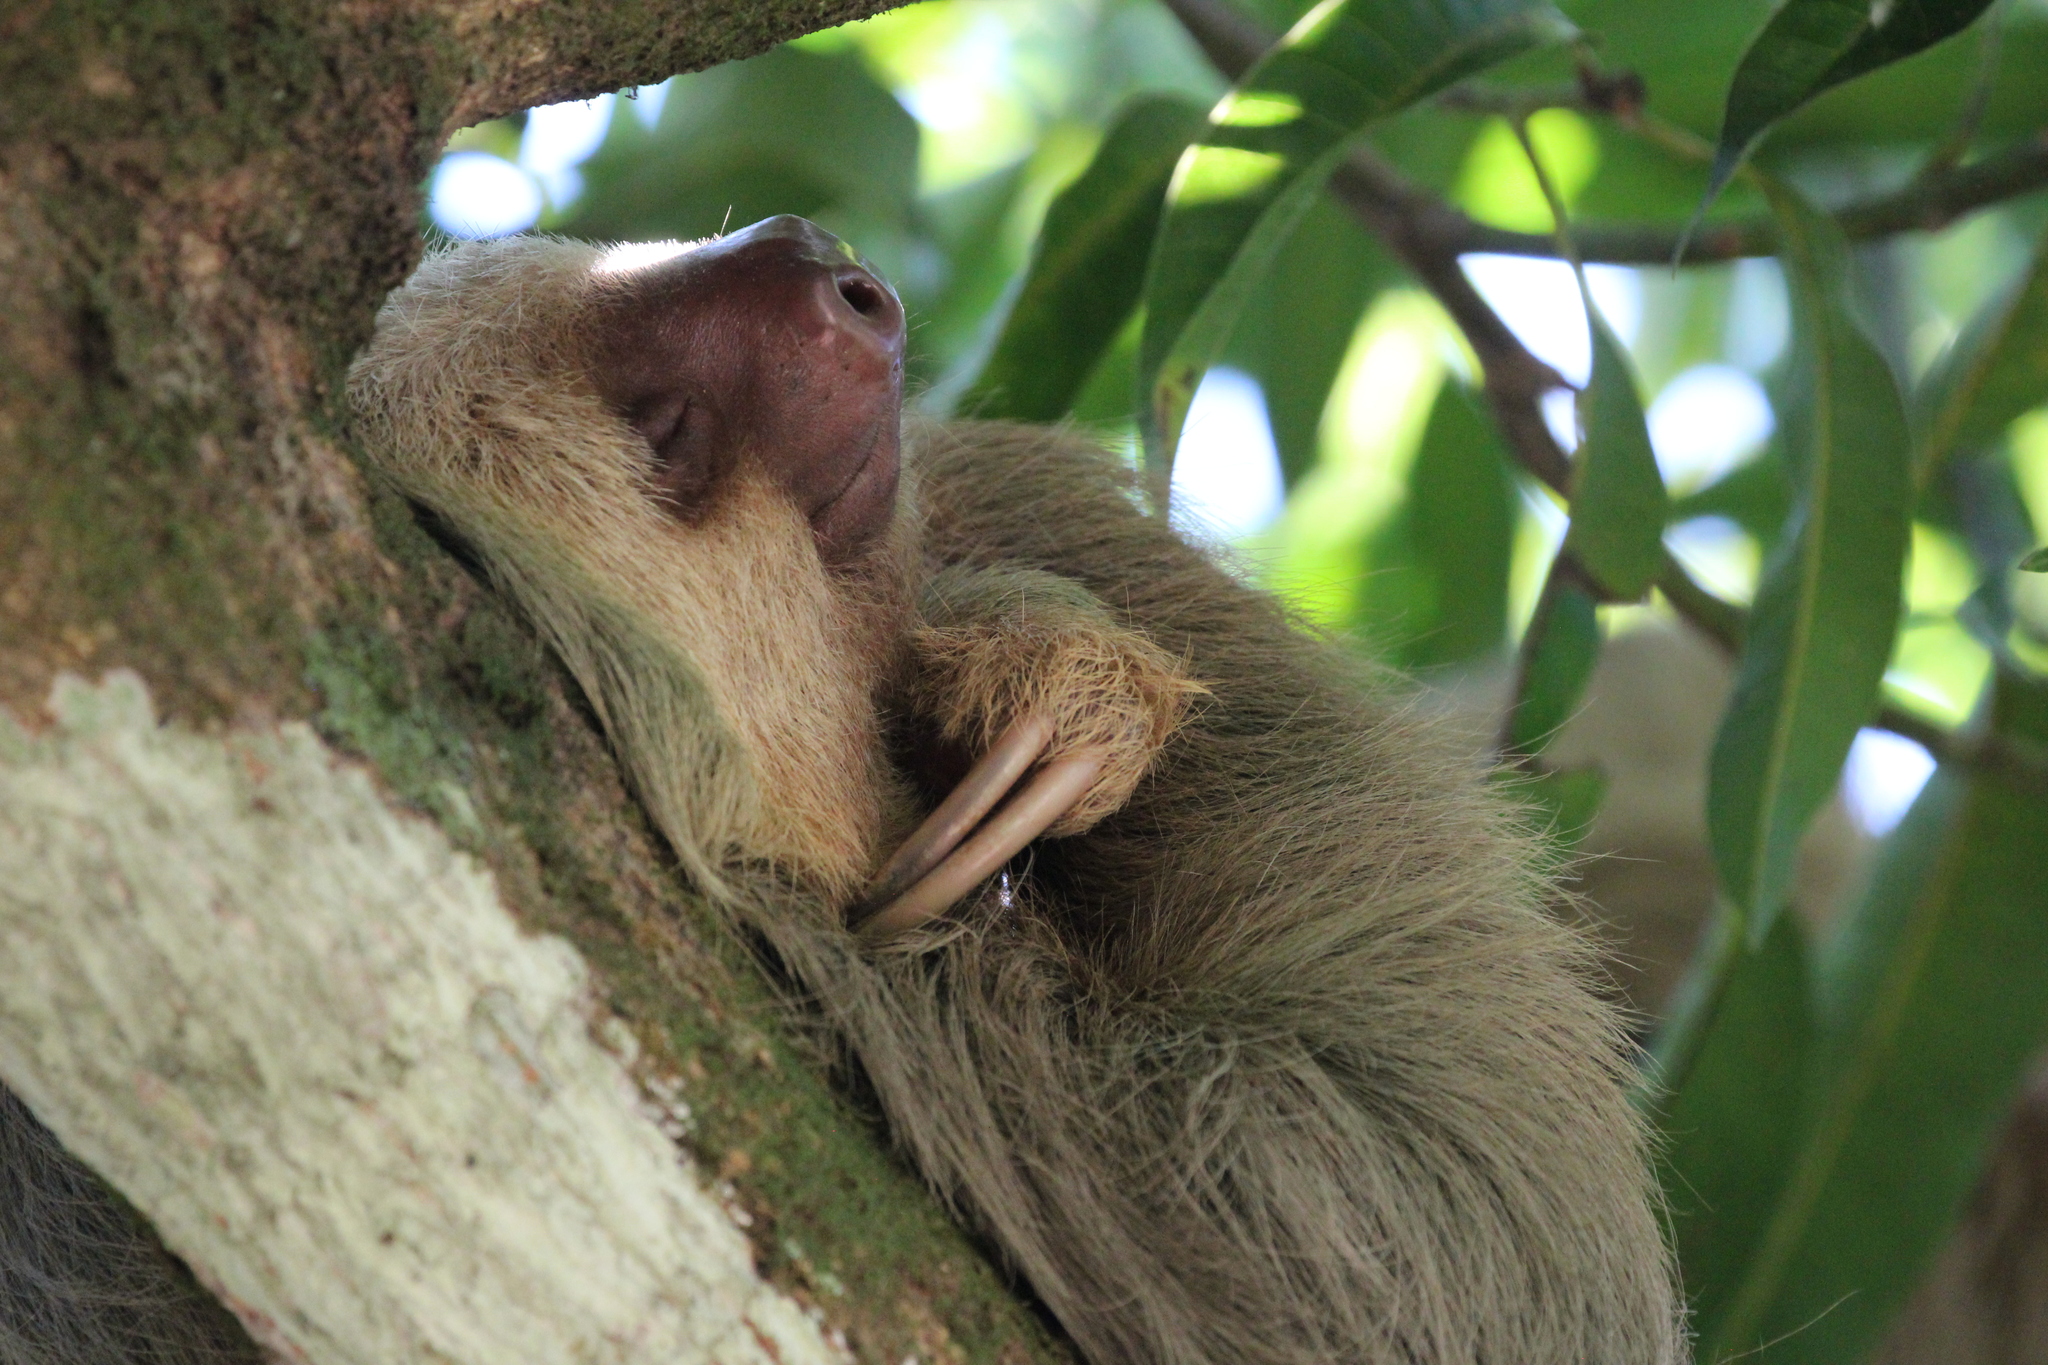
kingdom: Animalia
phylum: Chordata
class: Mammalia
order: Pilosa
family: Megalonychidae
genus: Choloepus
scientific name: Choloepus hoffmanni
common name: Hoffmann's two-toed sloth
